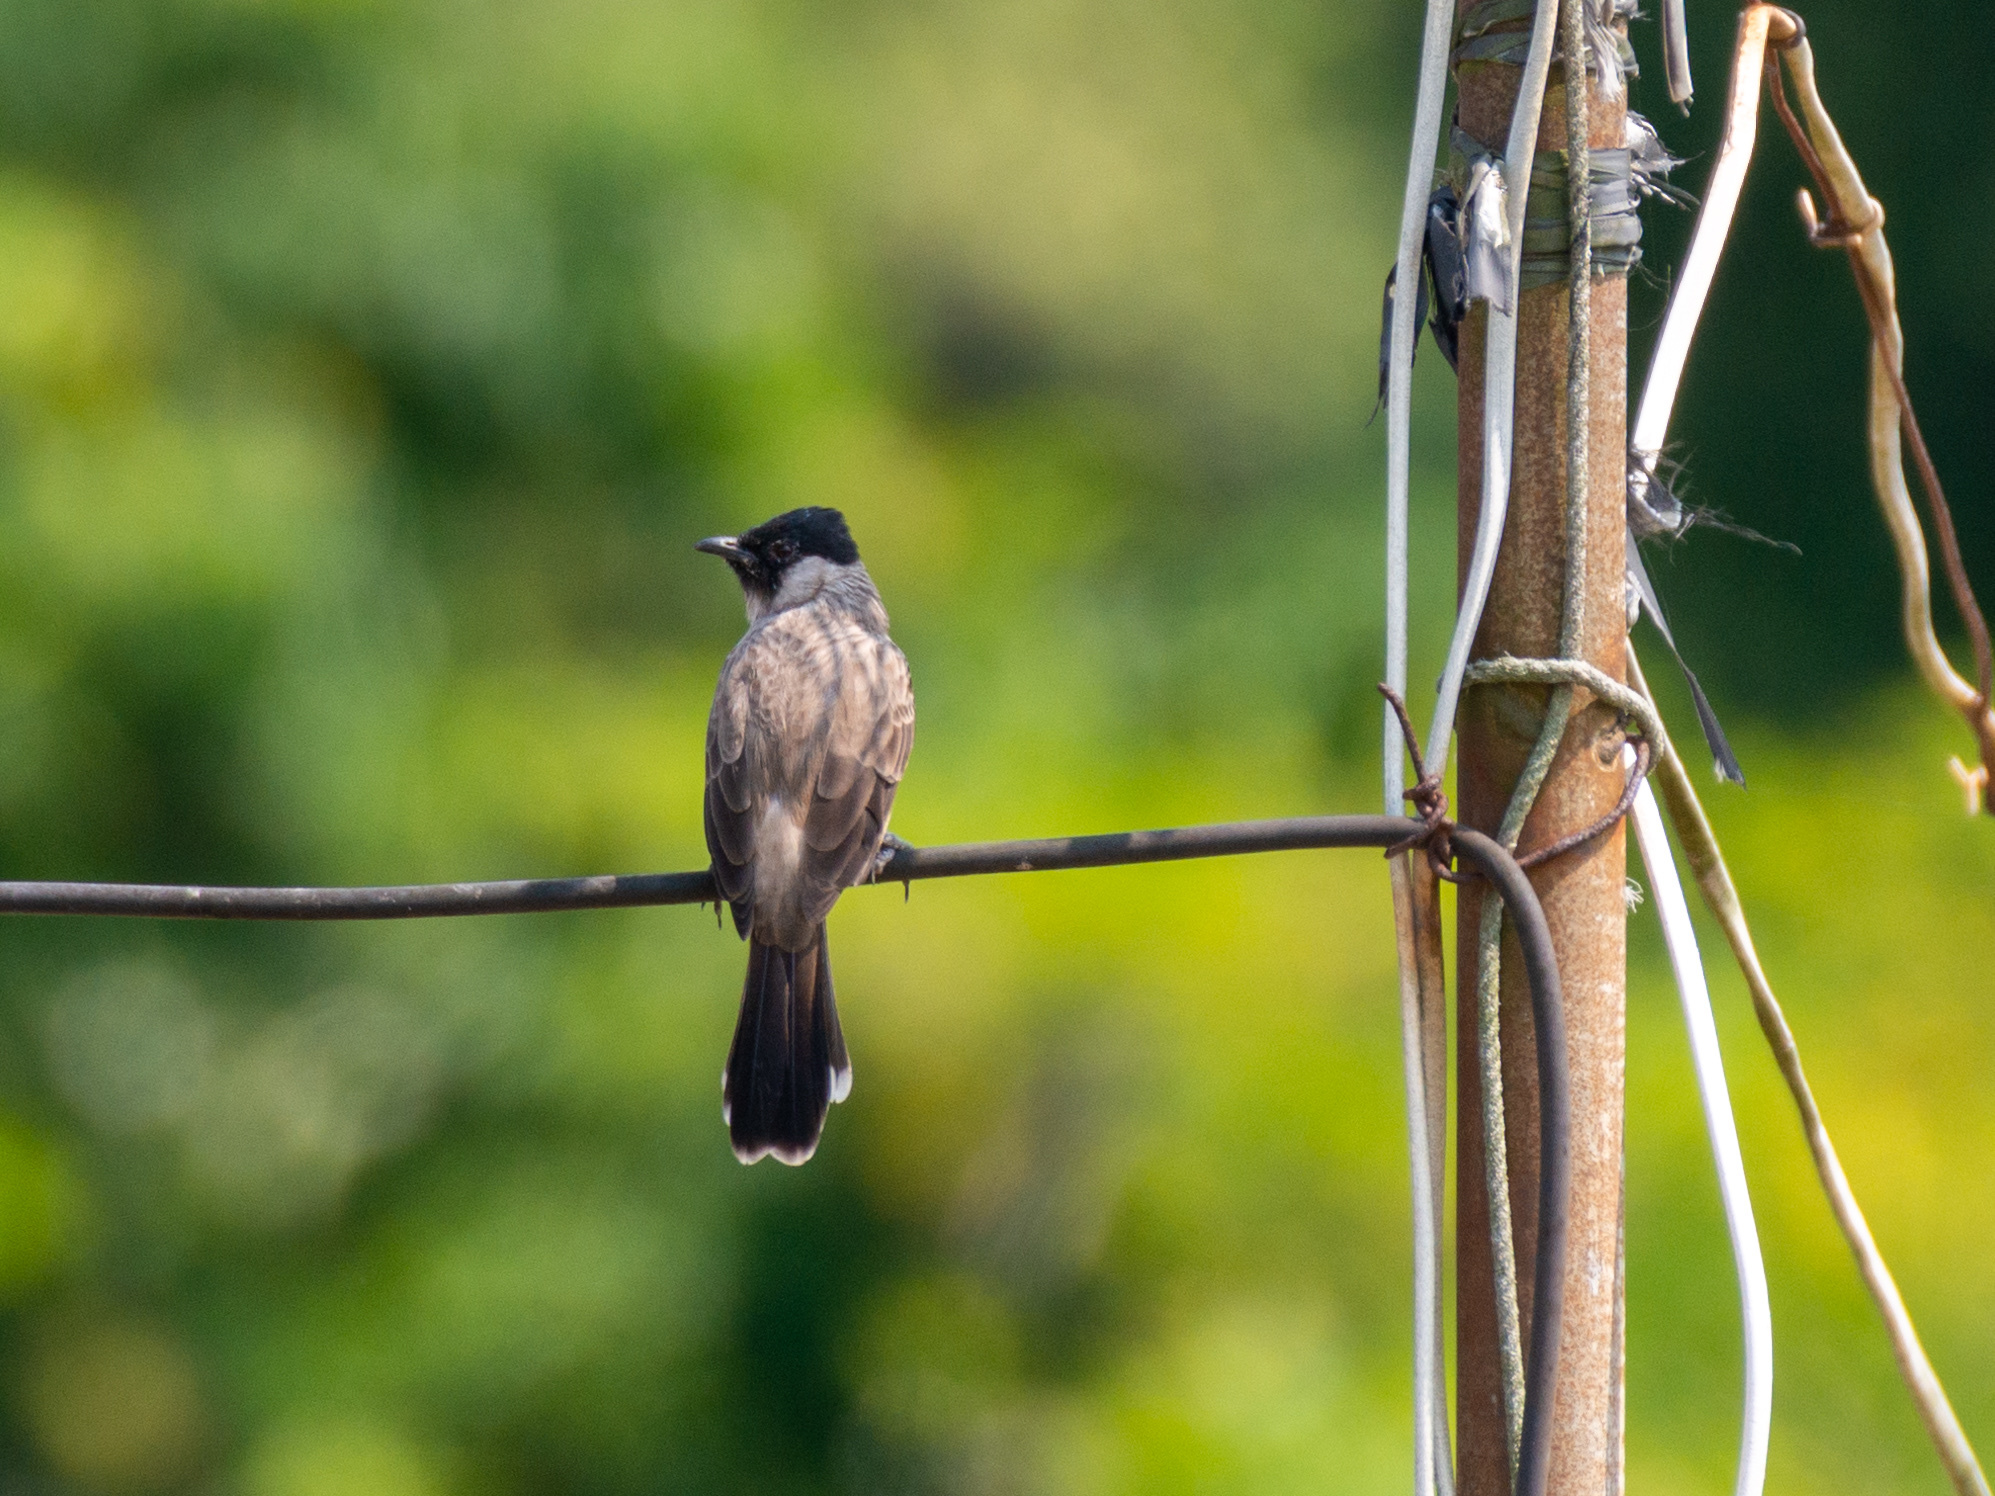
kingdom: Animalia
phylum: Chordata
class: Aves
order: Passeriformes
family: Pycnonotidae
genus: Pycnonotus
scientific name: Pycnonotus aurigaster
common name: Sooty-headed bulbul
